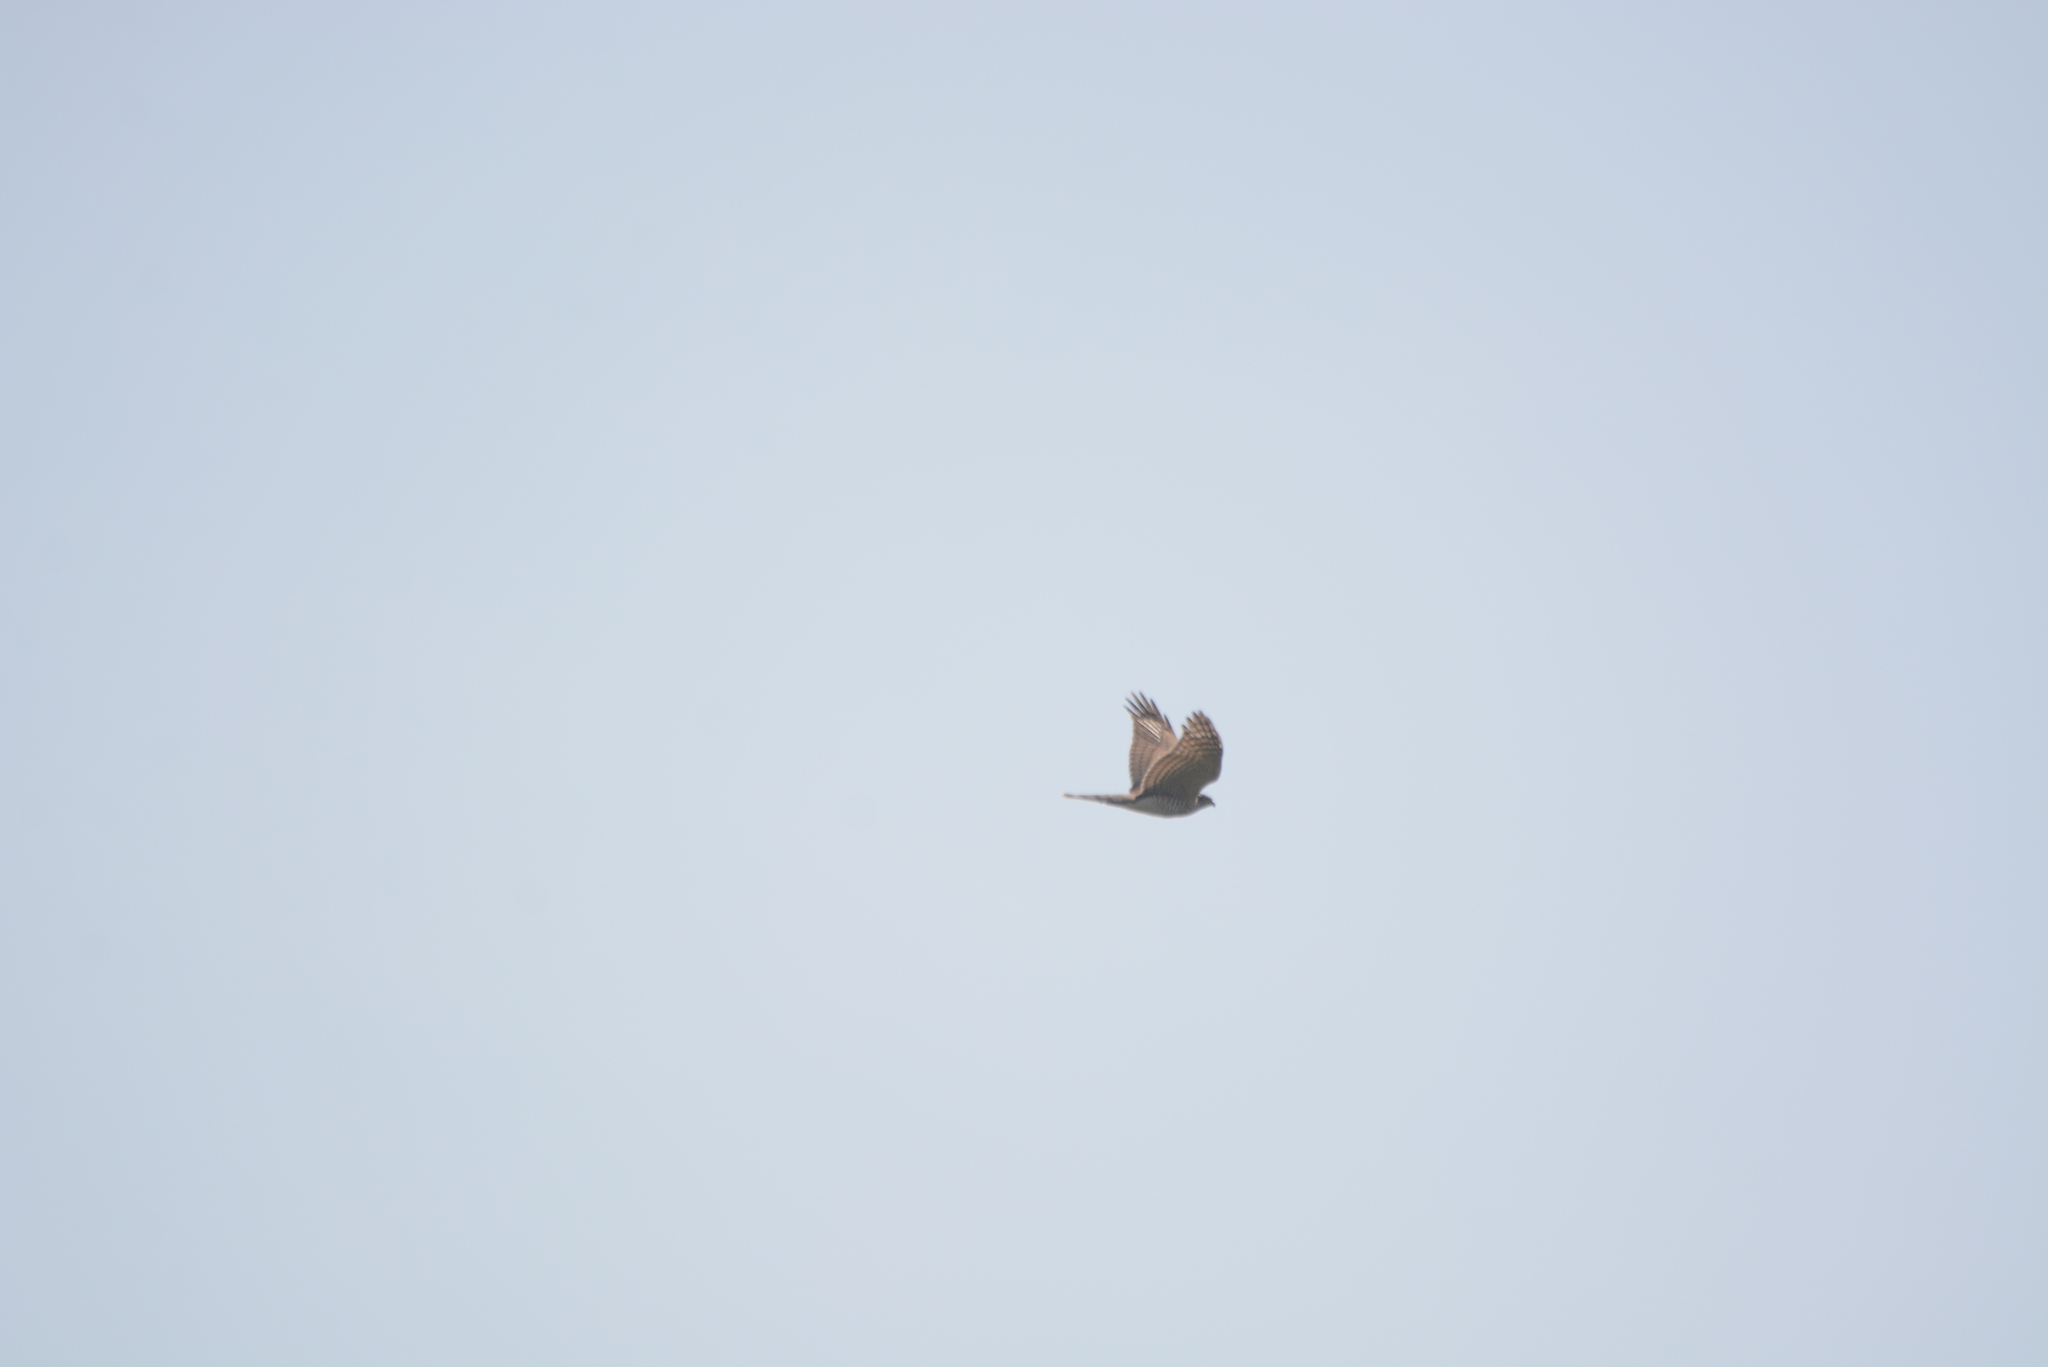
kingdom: Animalia
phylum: Chordata
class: Aves
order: Accipitriformes
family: Accipitridae
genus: Accipiter
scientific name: Accipiter nisus
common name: Eurasian sparrowhawk
